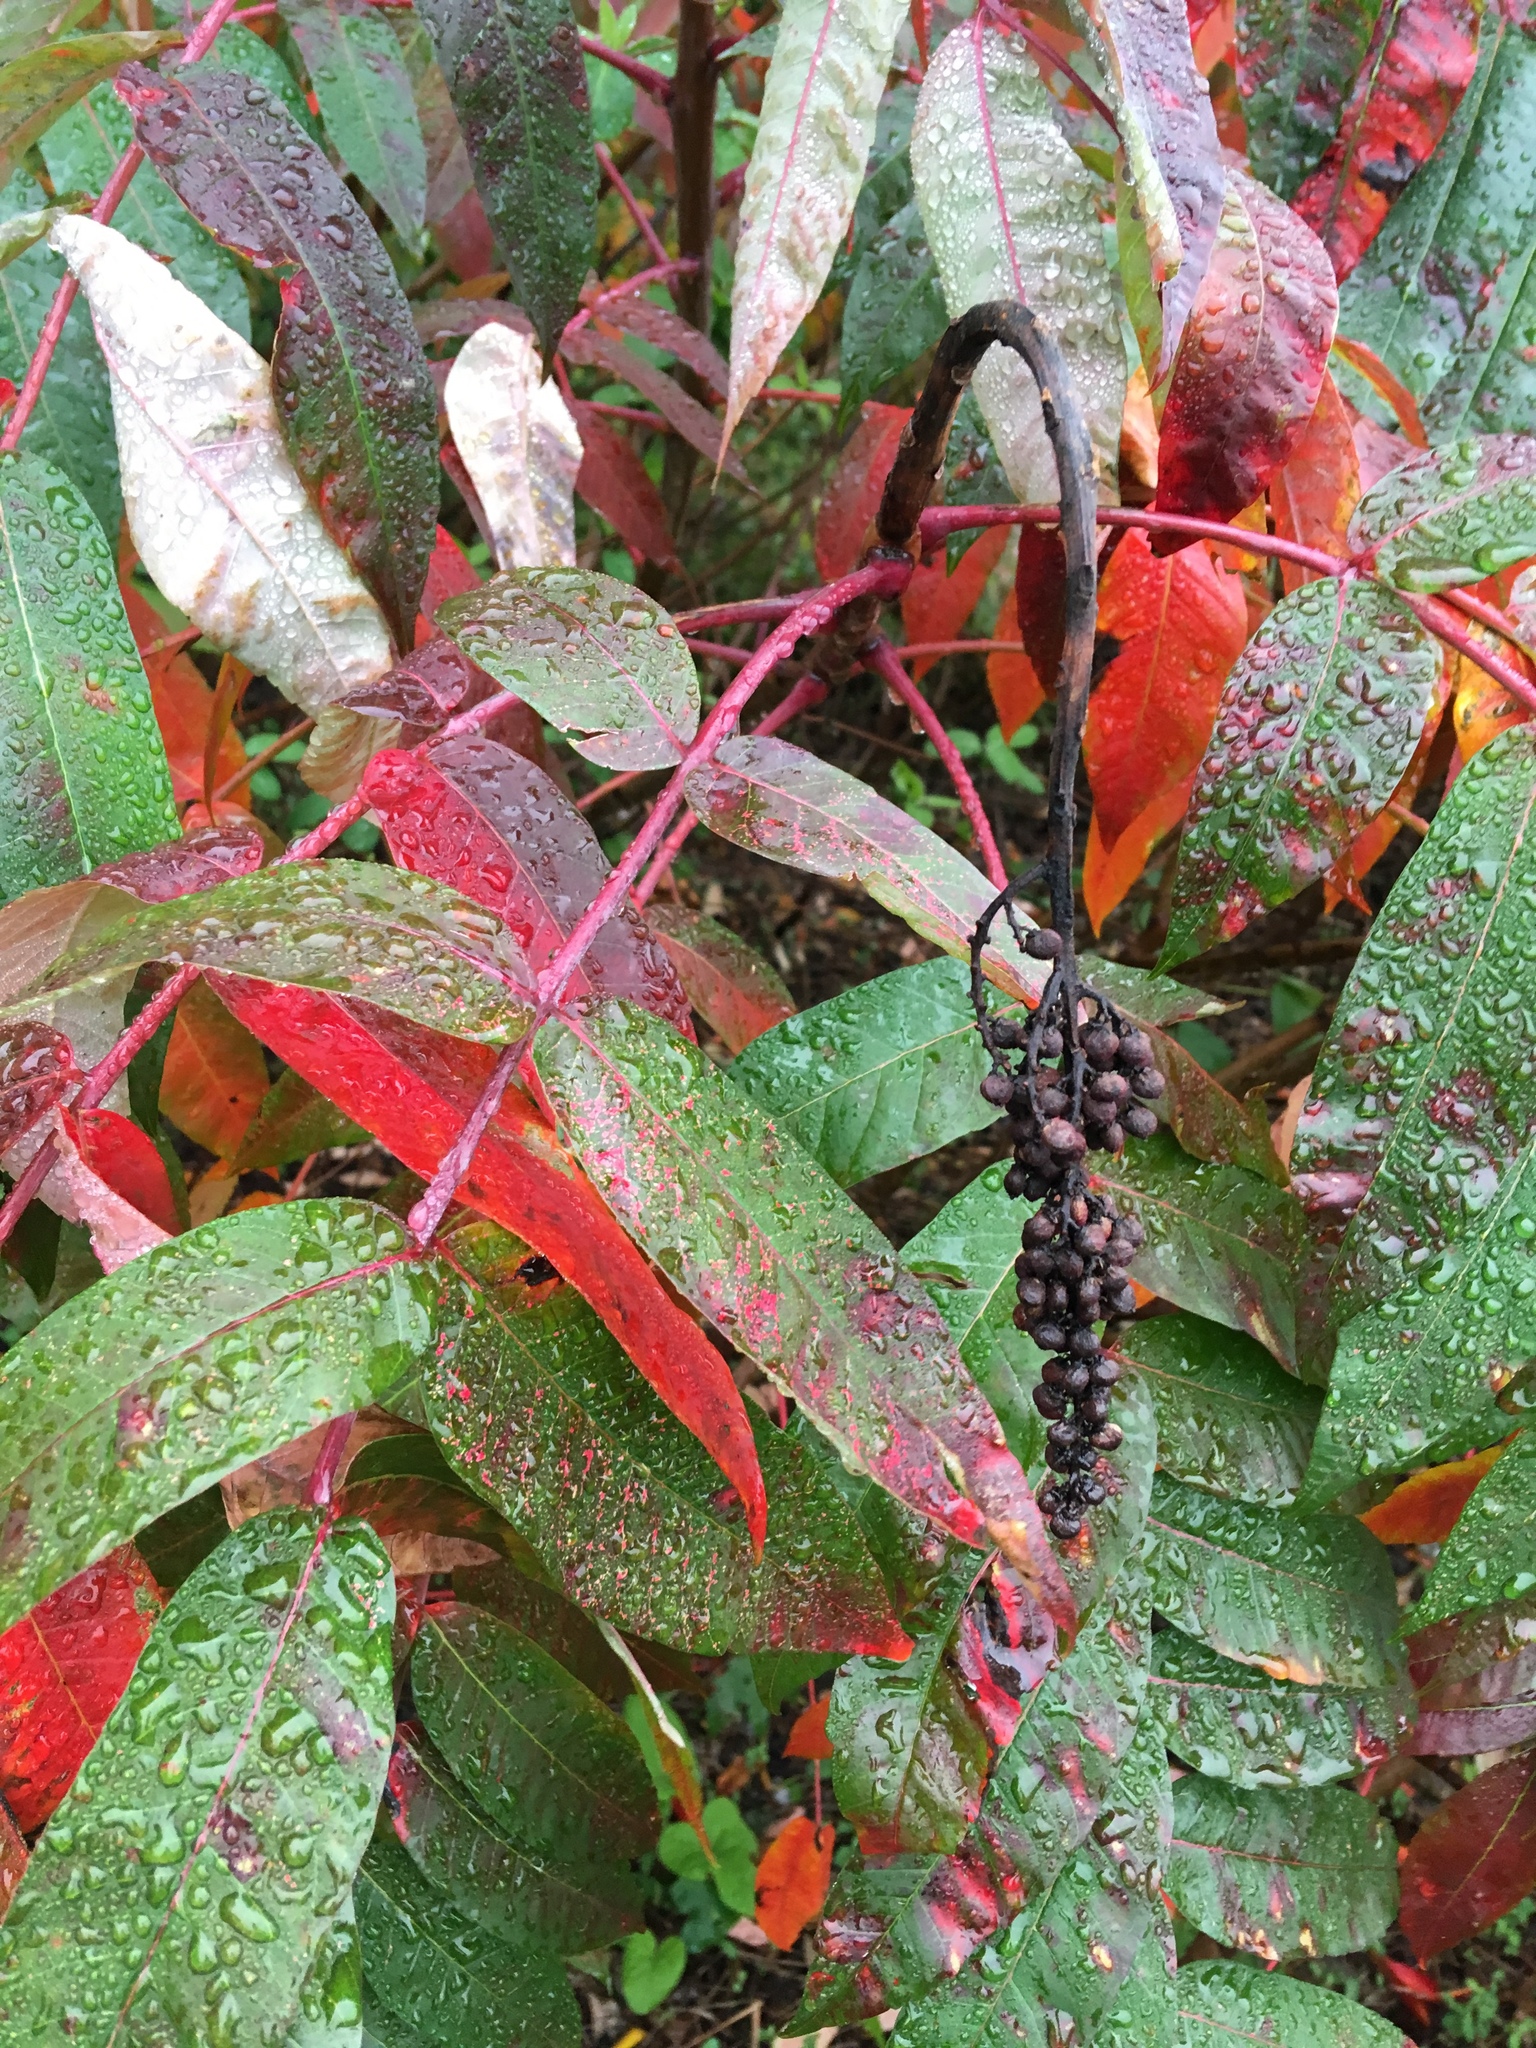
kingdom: Plantae
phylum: Tracheophyta
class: Magnoliopsida
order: Sapindales
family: Anacardiaceae
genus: Rhus
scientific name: Rhus glabra
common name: Scarlet sumac
